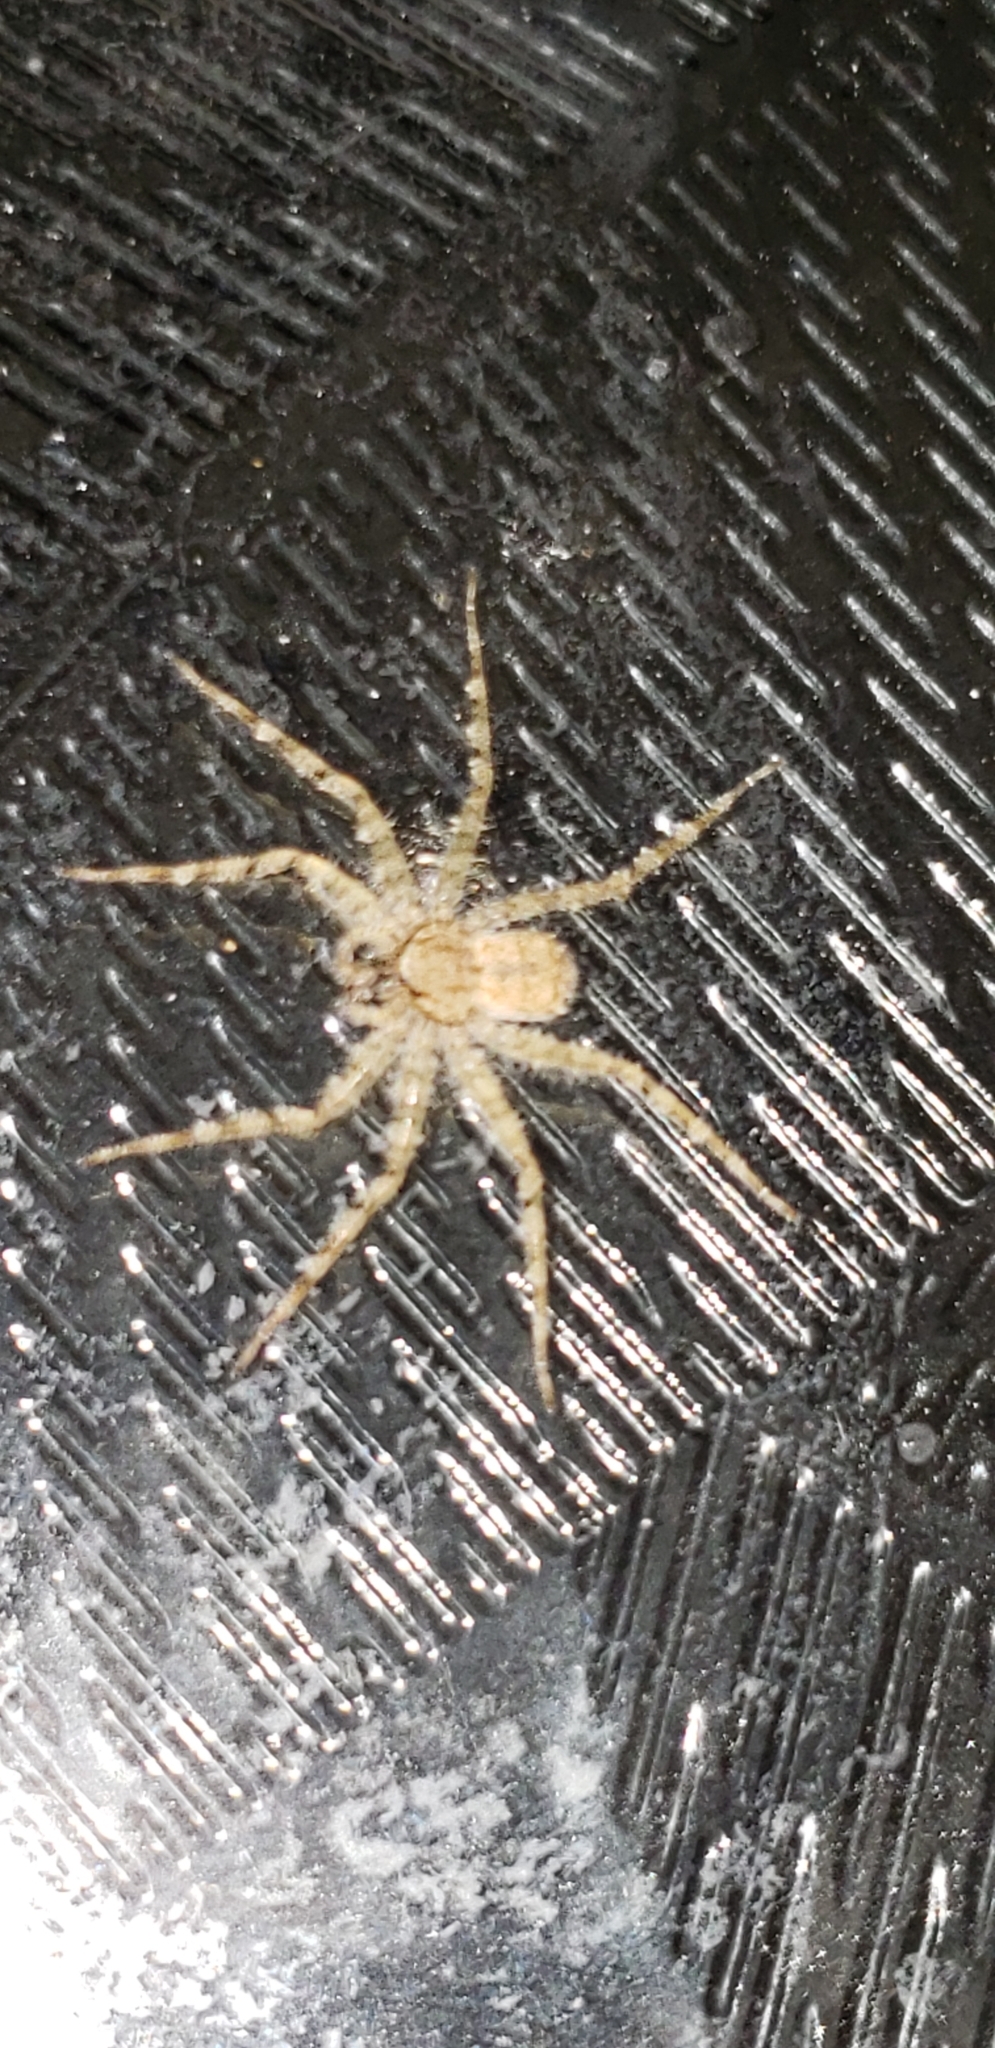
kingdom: Animalia
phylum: Arthropoda
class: Arachnida
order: Araneae
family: Selenopidae
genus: Selenops
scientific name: Selenops lindborgi
